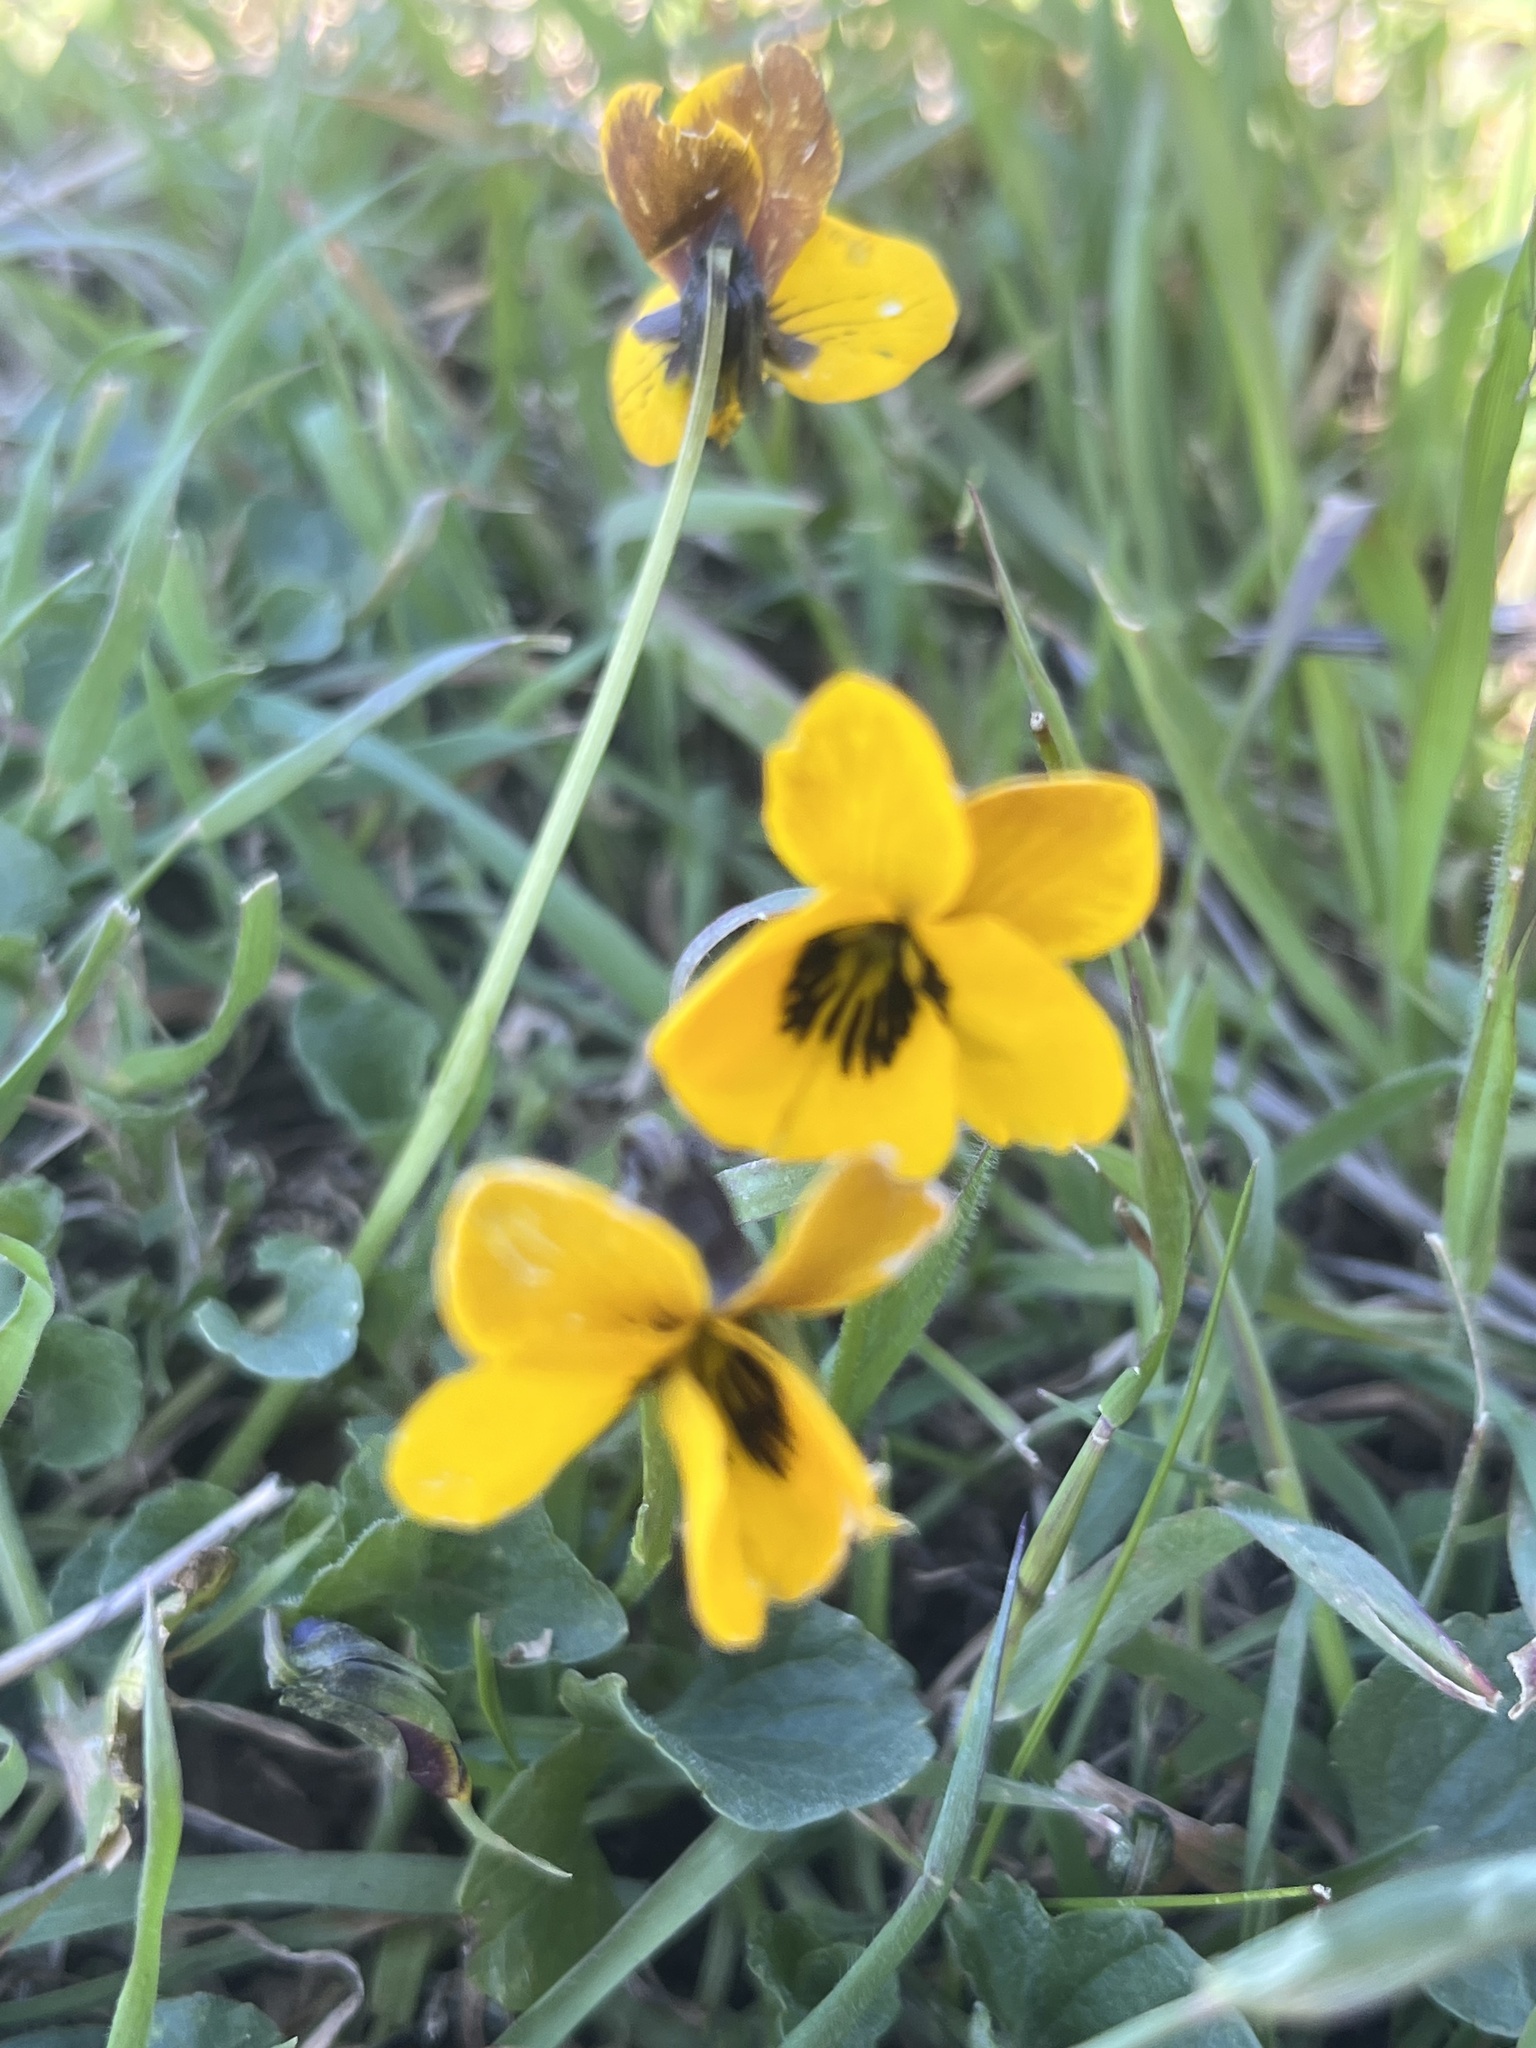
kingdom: Plantae
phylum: Tracheophyta
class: Magnoliopsida
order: Malpighiales
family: Violaceae
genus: Viola
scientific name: Viola pedunculata
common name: California golden violet
